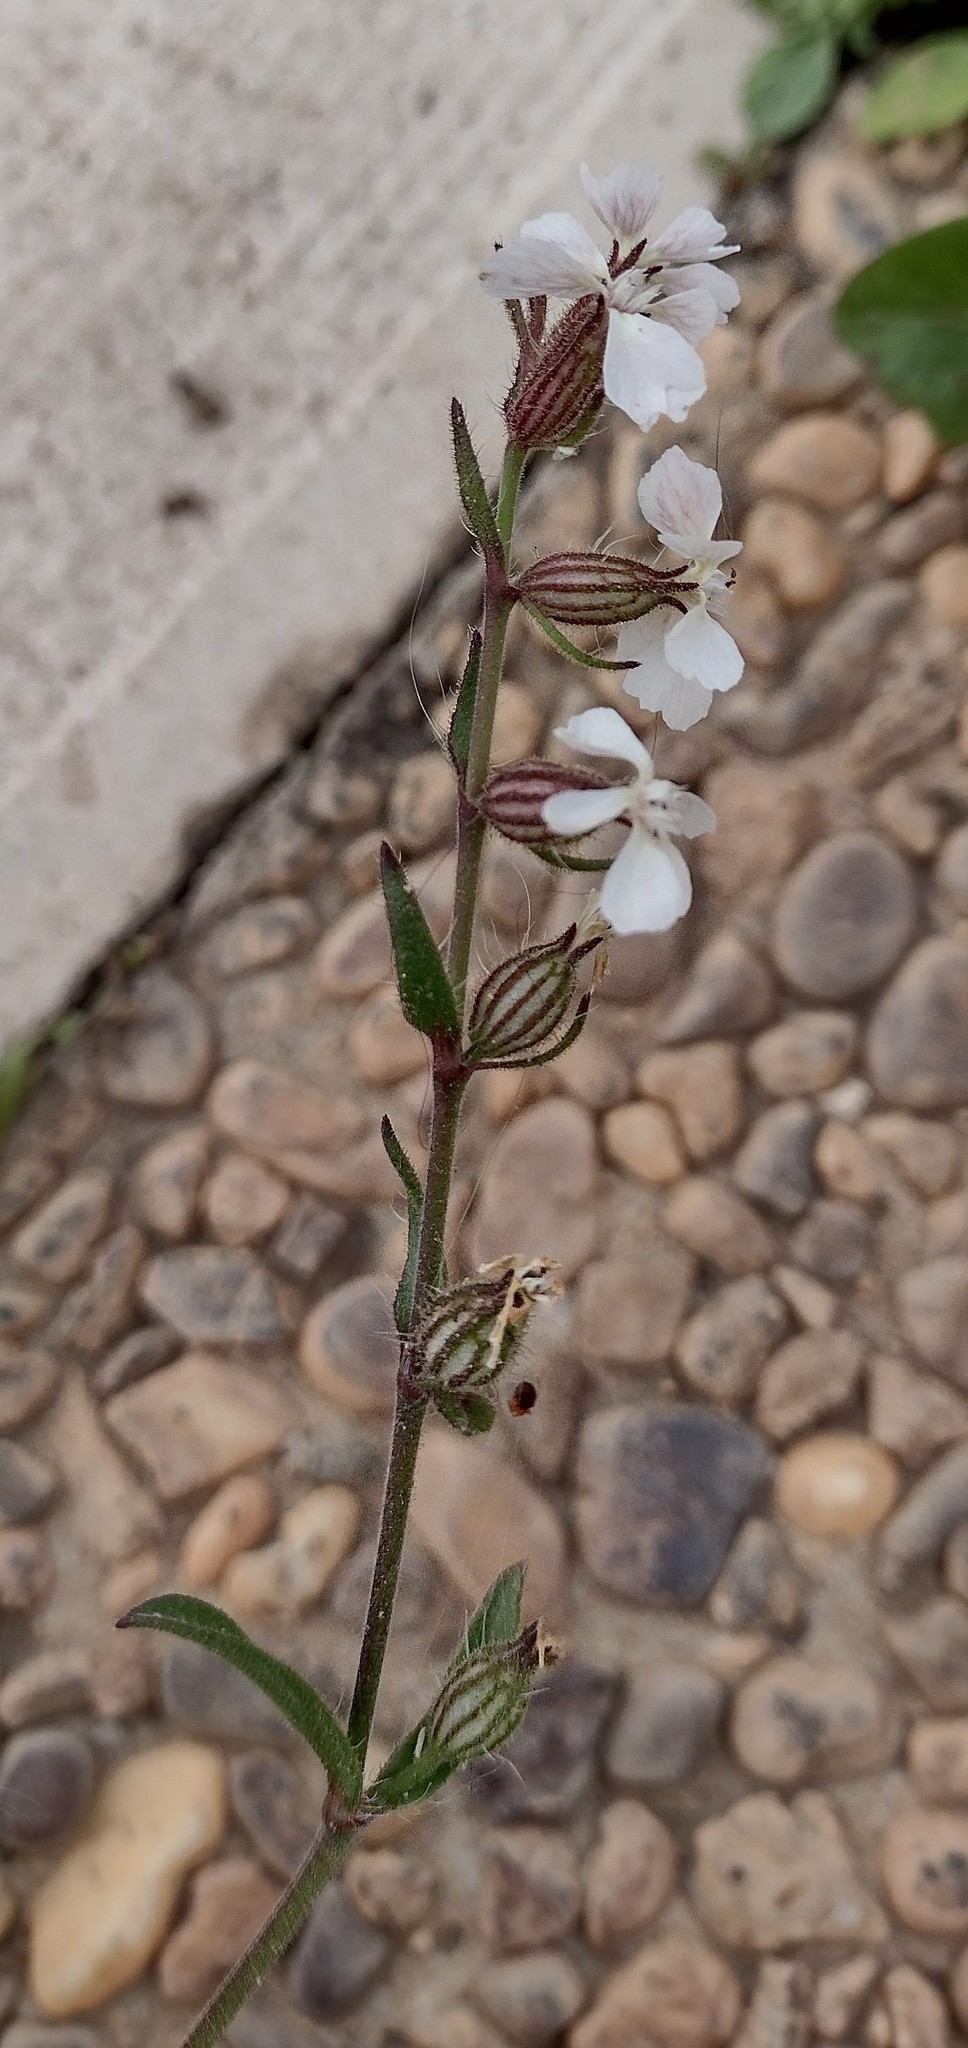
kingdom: Plantae
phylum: Tracheophyta
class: Magnoliopsida
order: Caryophyllales
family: Caryophyllaceae
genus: Silene
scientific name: Silene gallica
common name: Small-flowered catchfly
